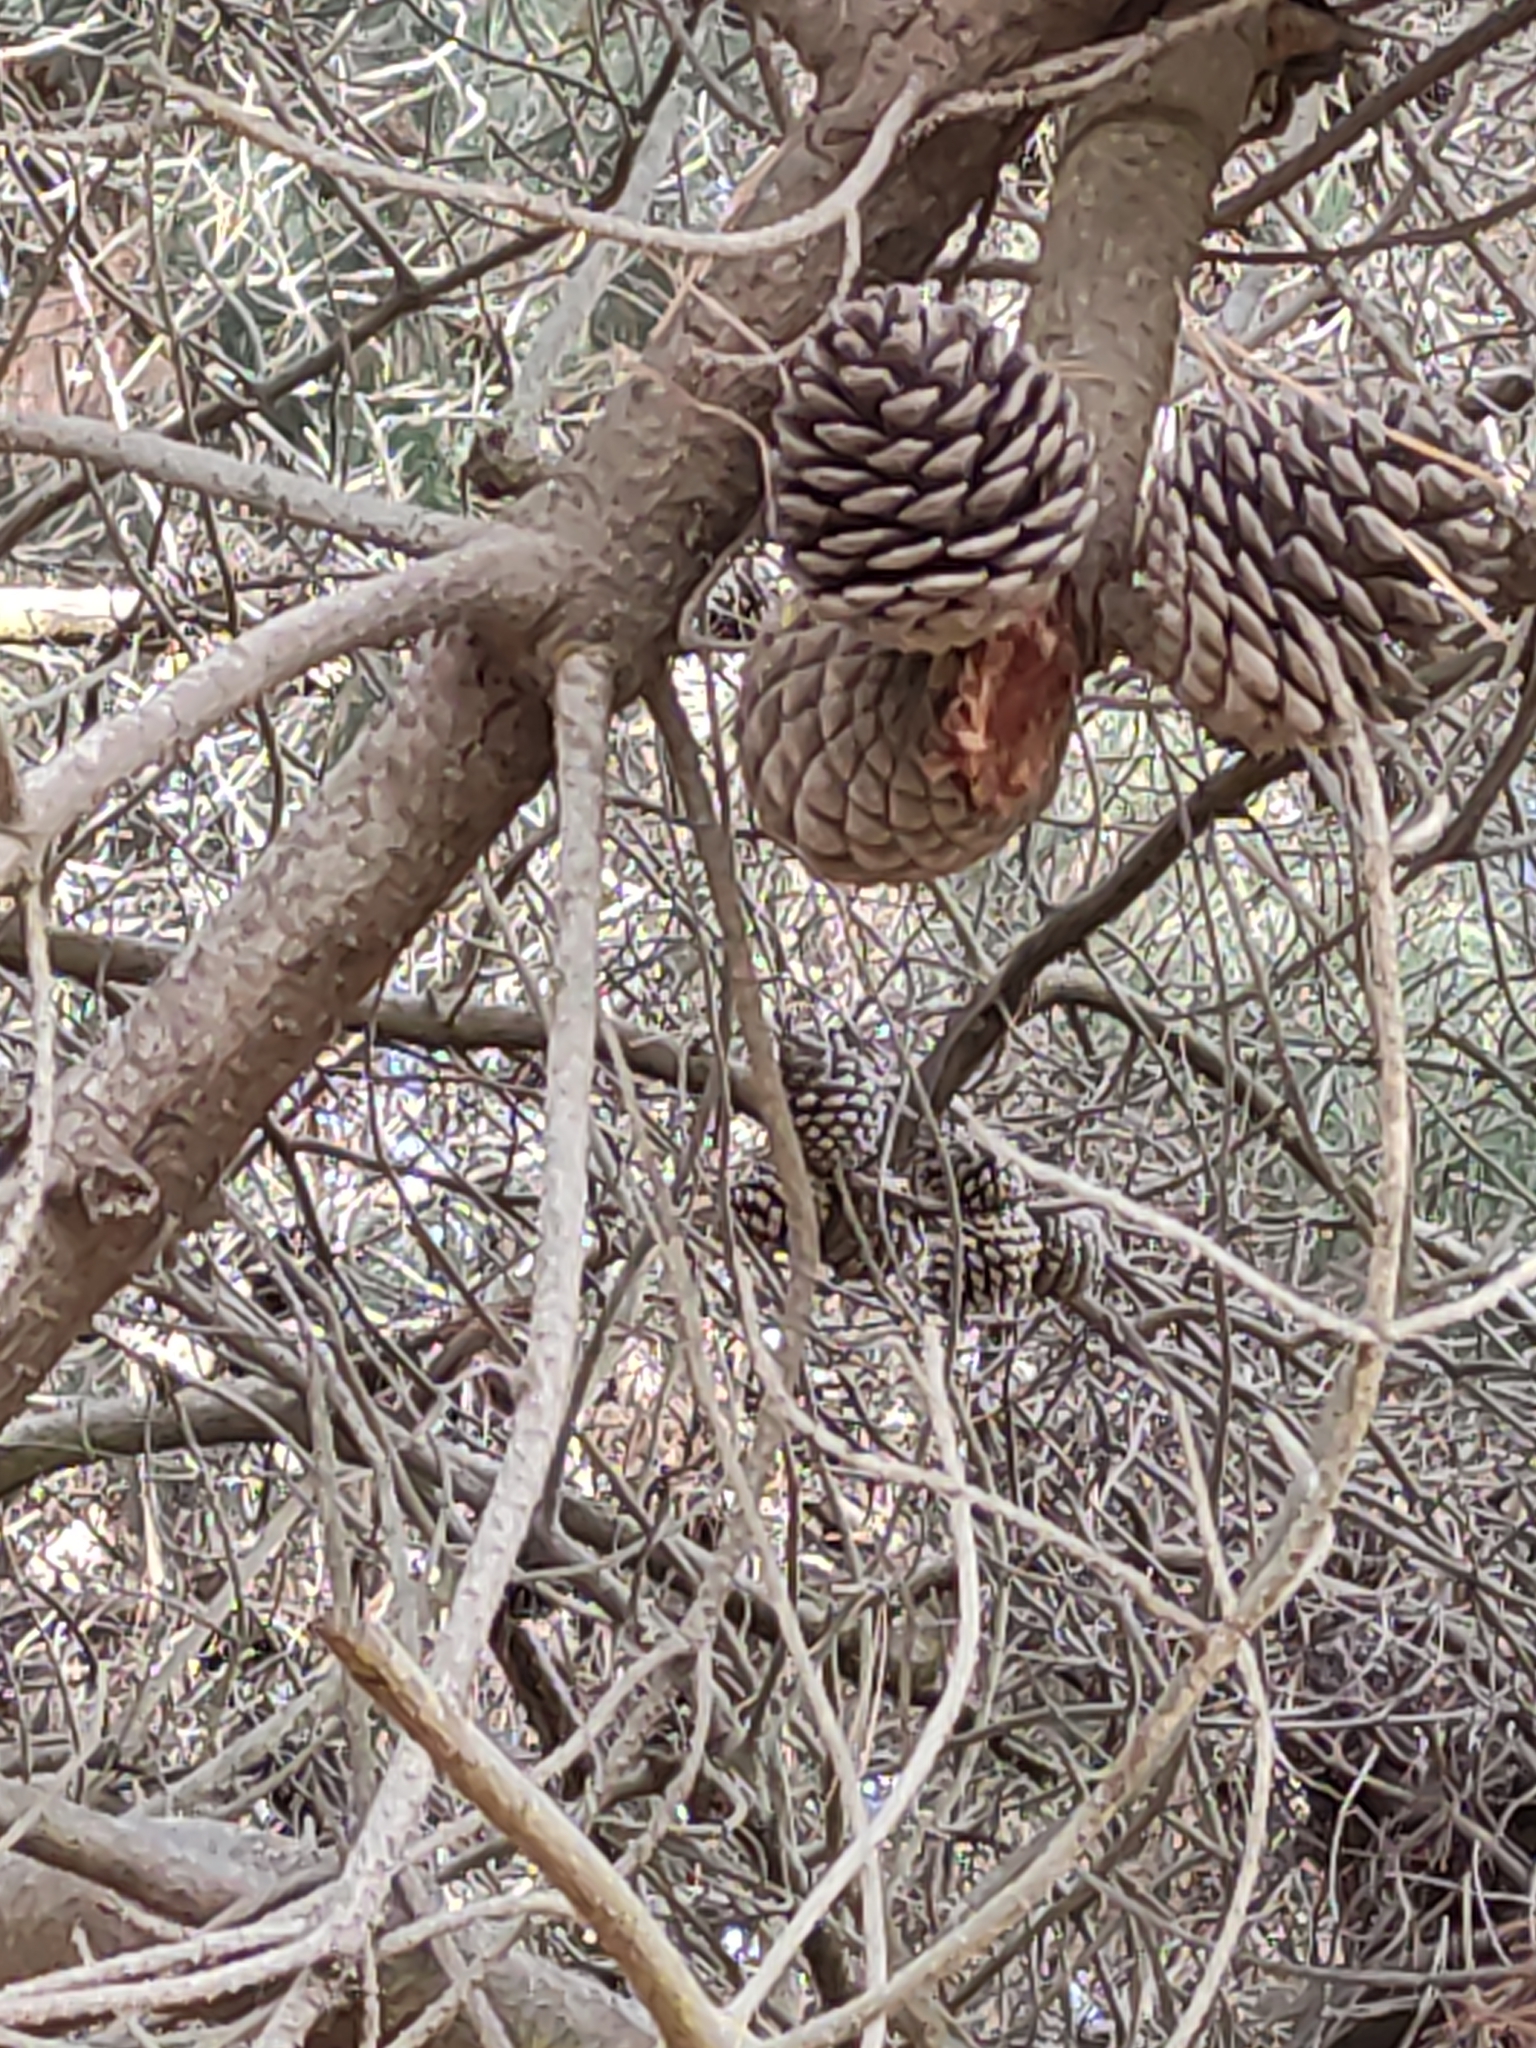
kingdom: Plantae
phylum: Tracheophyta
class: Pinopsida
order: Pinales
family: Pinaceae
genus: Pinus
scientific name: Pinus radiata
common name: Monterey pine
